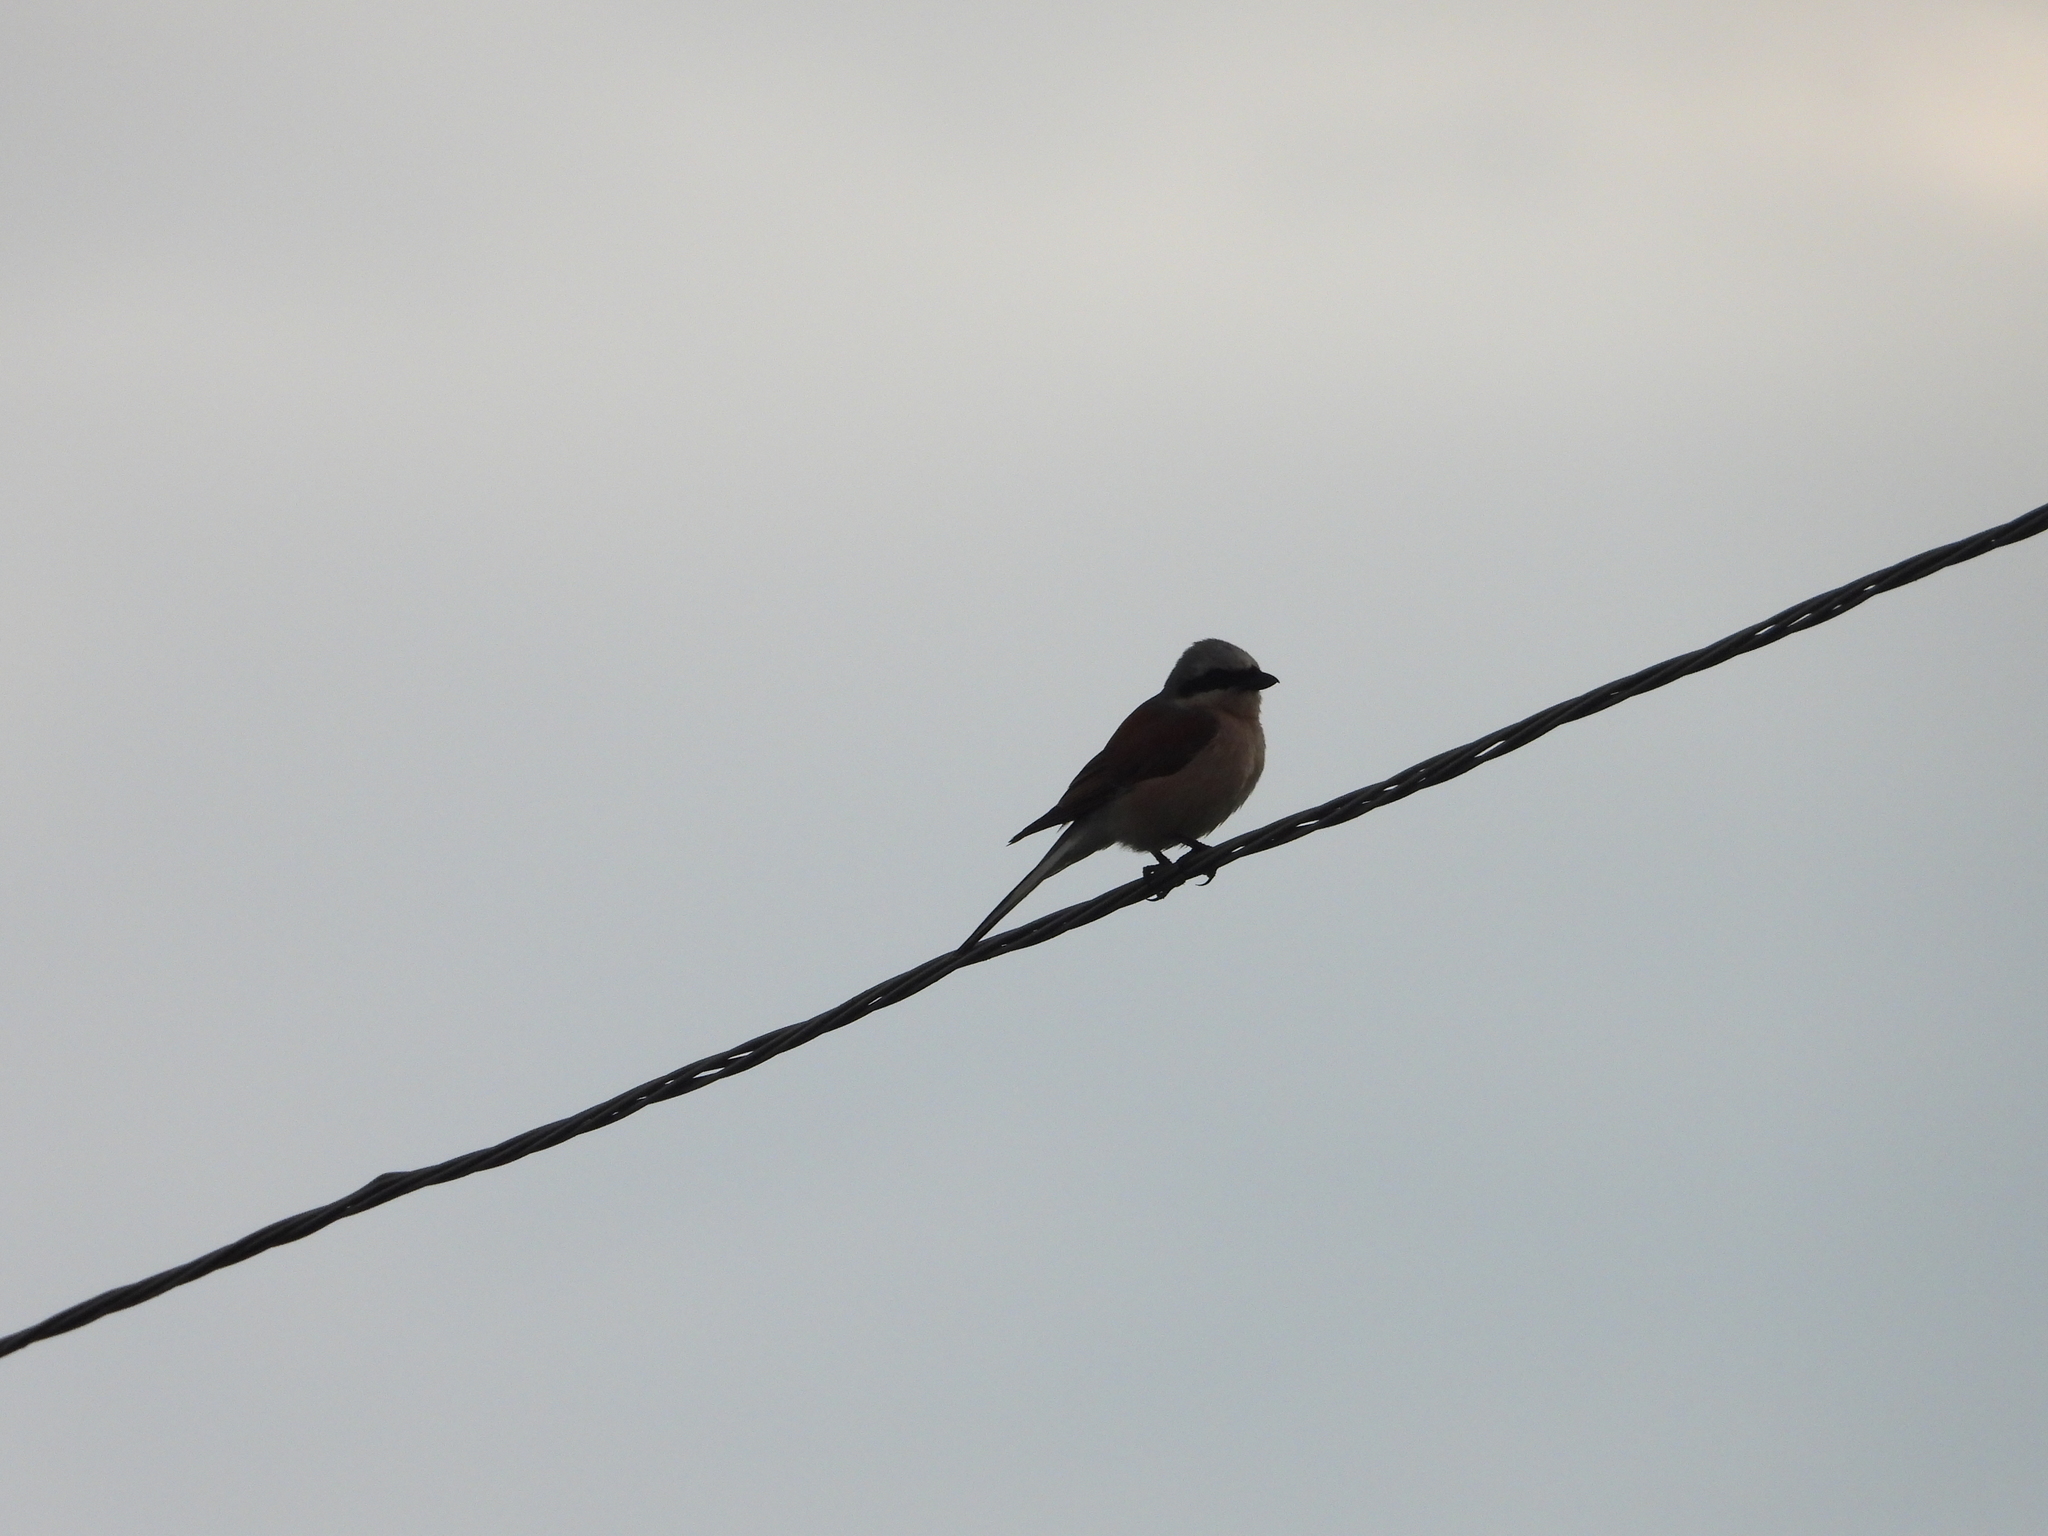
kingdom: Animalia
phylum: Chordata
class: Aves
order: Passeriformes
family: Laniidae
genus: Lanius
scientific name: Lanius collurio
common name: Red-backed shrike
